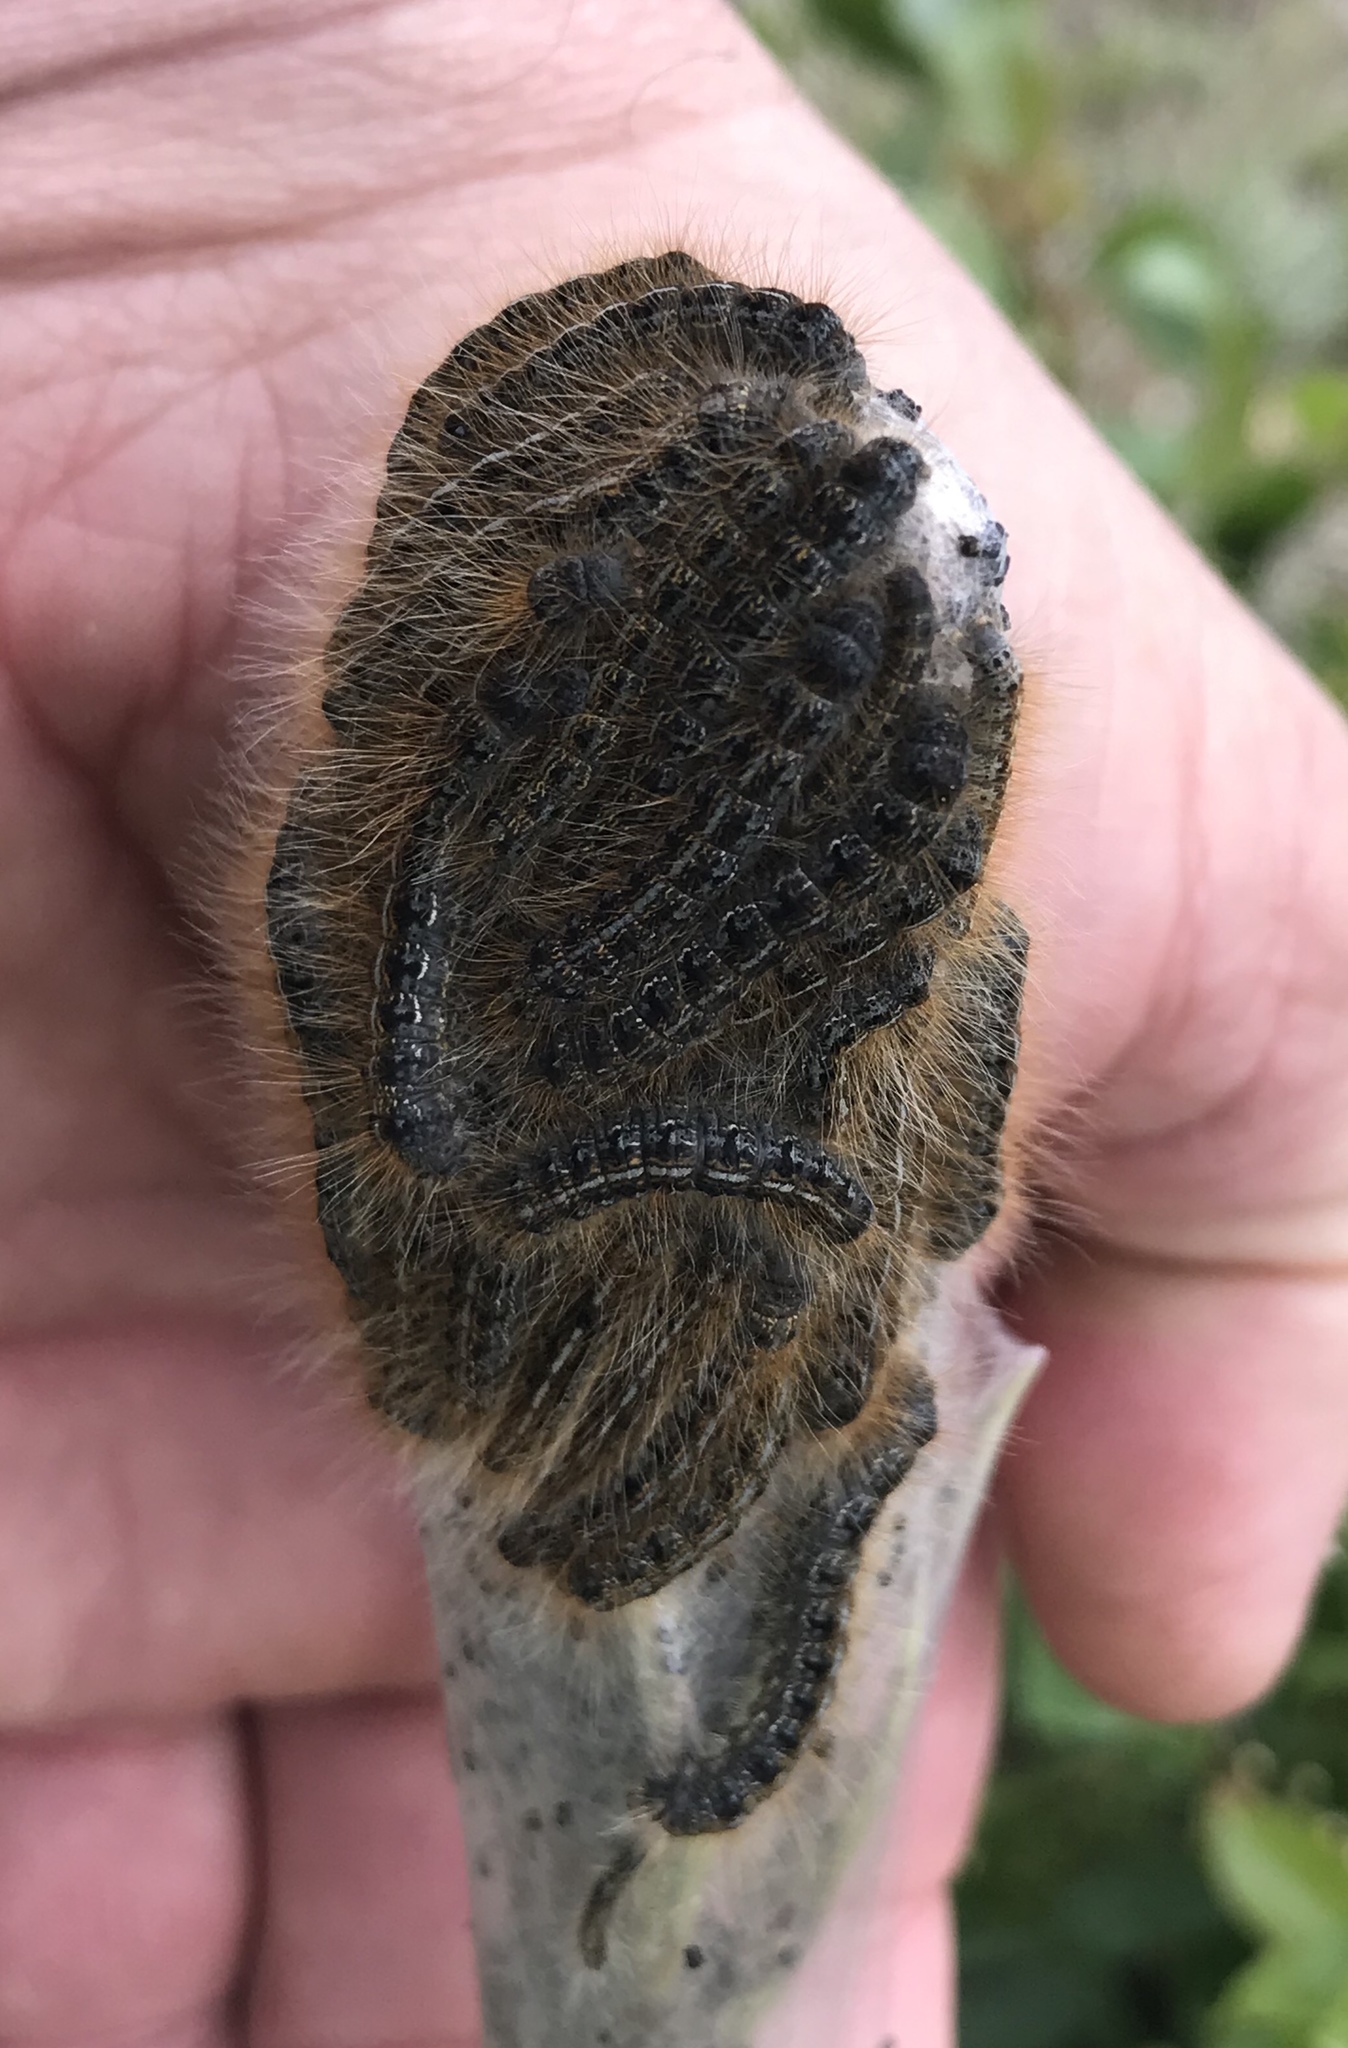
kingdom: Animalia
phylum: Arthropoda
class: Insecta
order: Lepidoptera
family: Lasiocampidae
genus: Malacosoma
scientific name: Malacosoma californica
